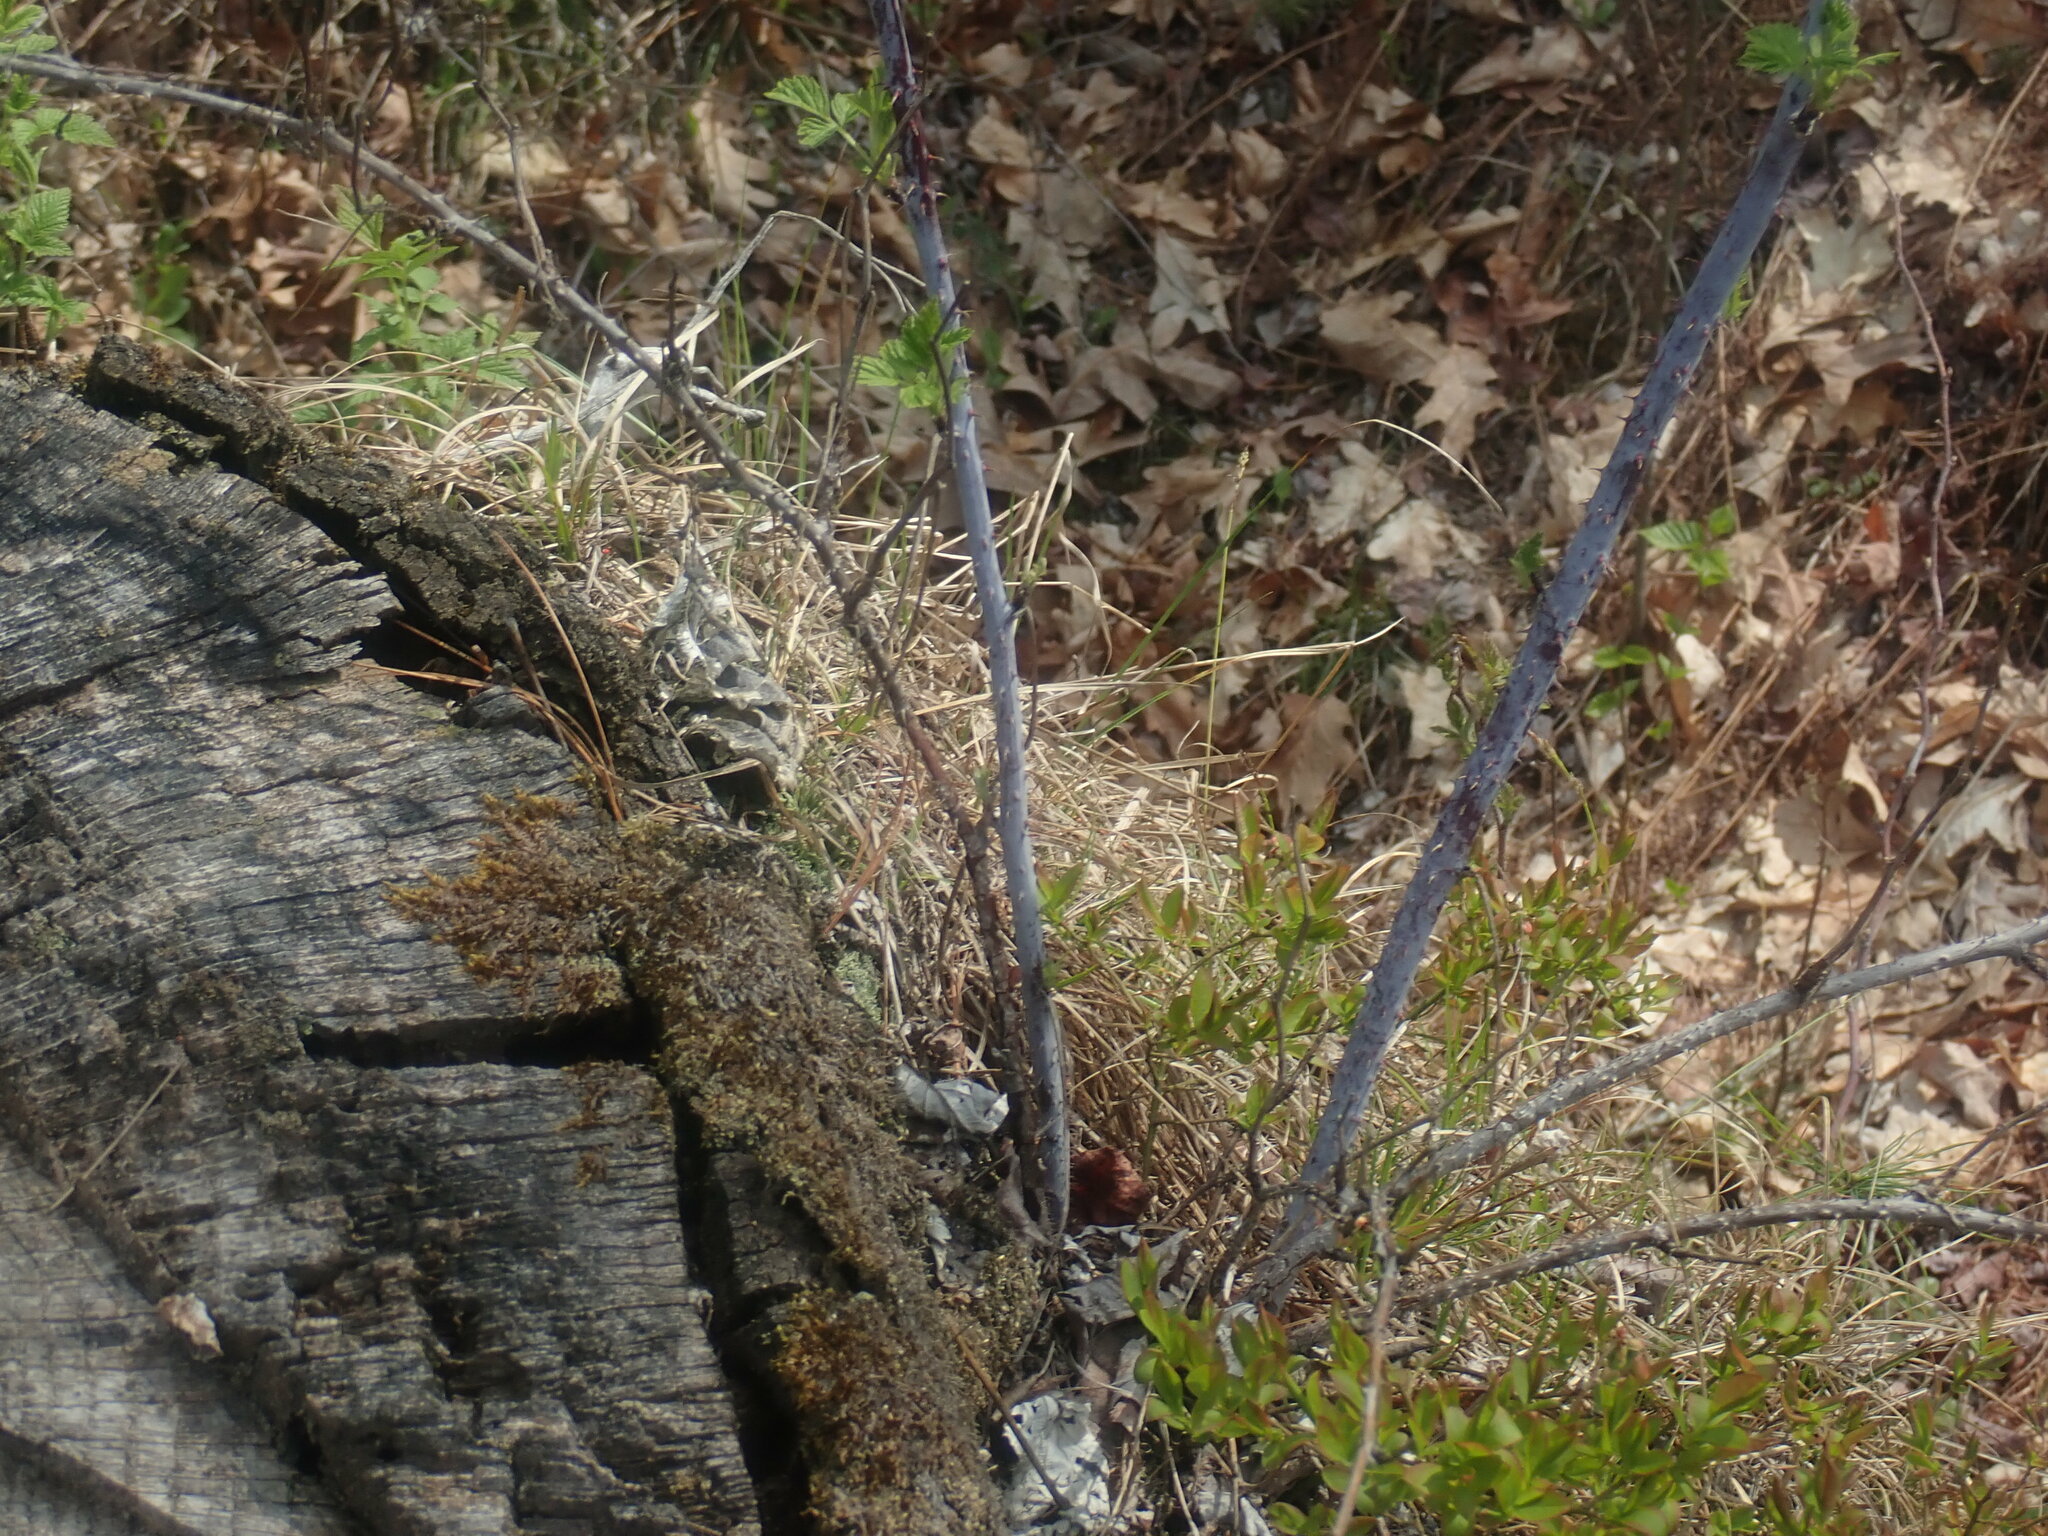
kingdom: Plantae
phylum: Tracheophyta
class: Magnoliopsida
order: Rosales
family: Rosaceae
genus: Rubus
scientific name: Rubus occidentalis
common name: Black raspberry
